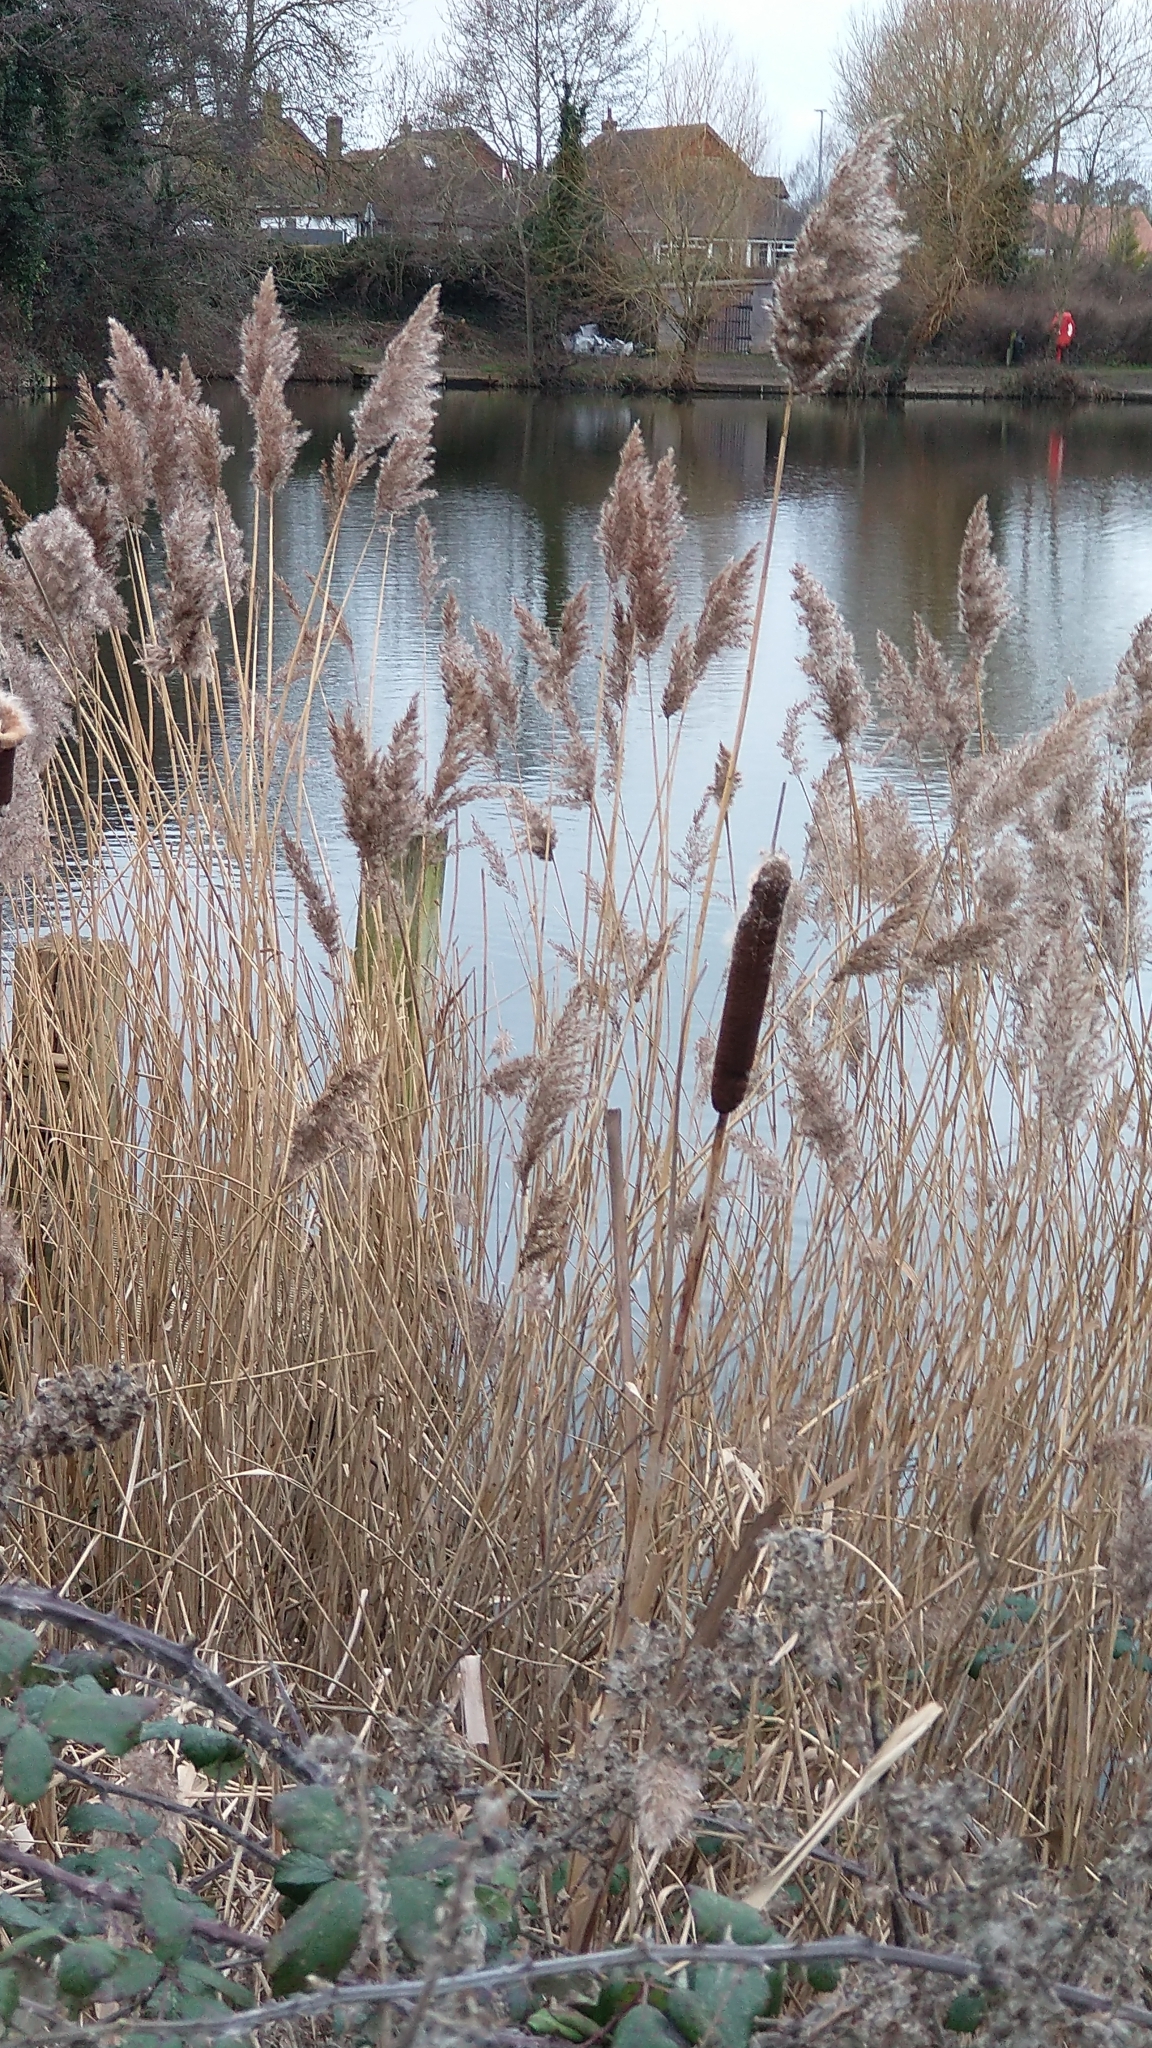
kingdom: Plantae
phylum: Tracheophyta
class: Liliopsida
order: Poales
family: Poaceae
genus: Phragmites
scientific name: Phragmites australis
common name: Common reed
